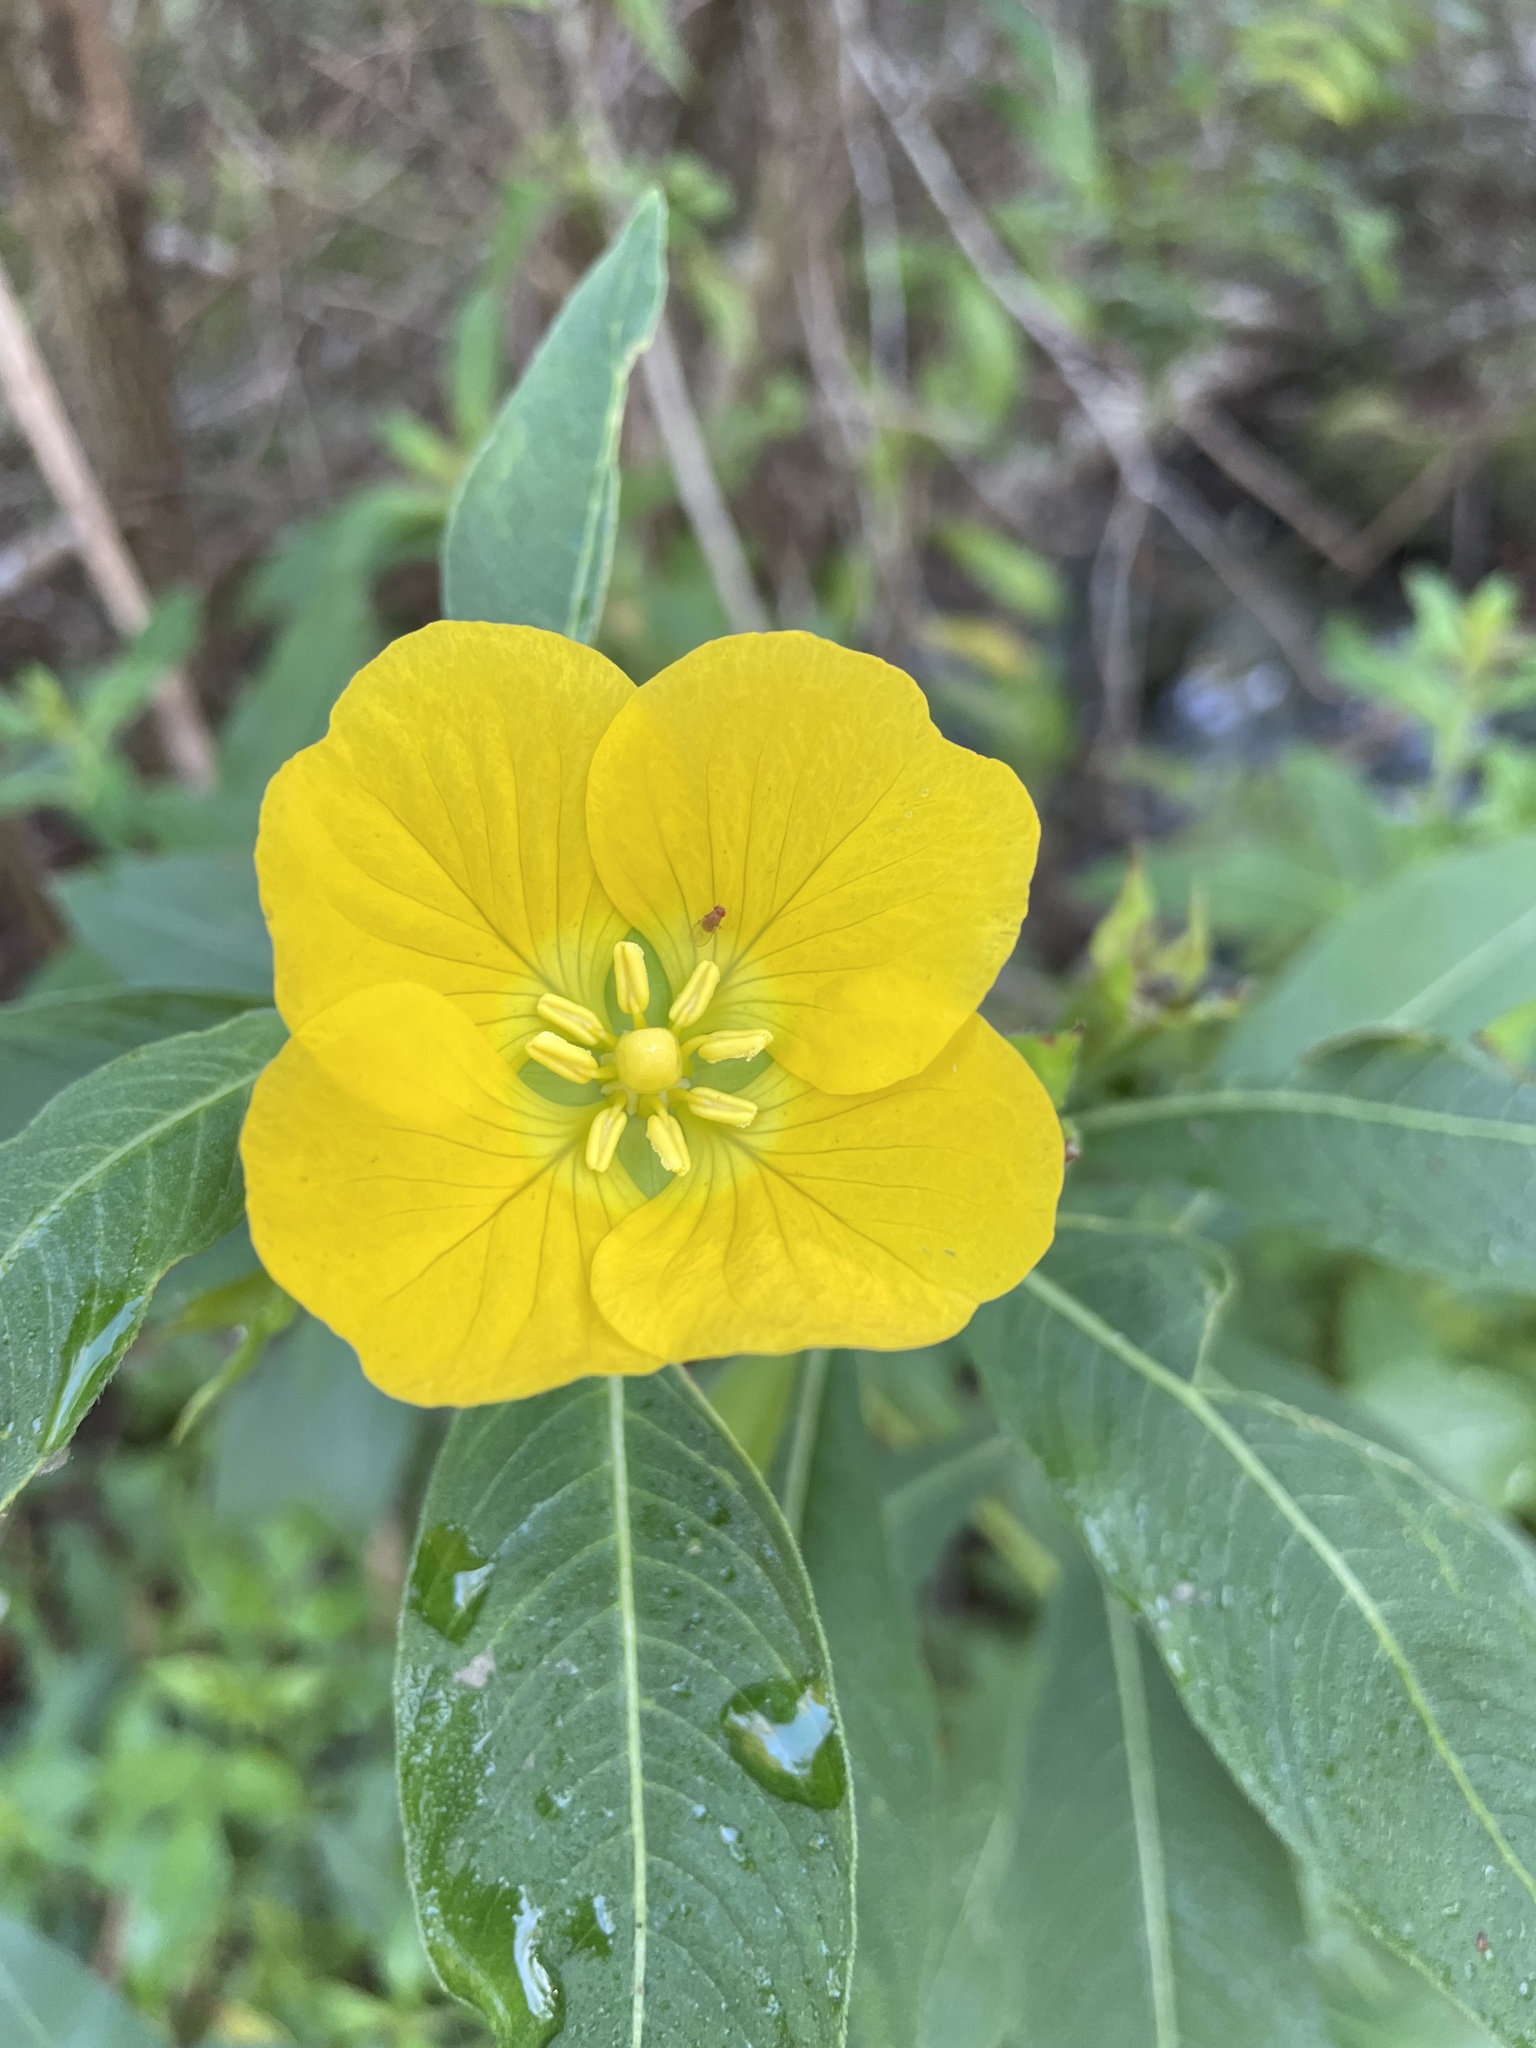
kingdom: Plantae
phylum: Tracheophyta
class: Magnoliopsida
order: Myrtales
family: Onagraceae
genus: Ludwigia
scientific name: Ludwigia peruviana
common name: Peruvian primrose-willow
